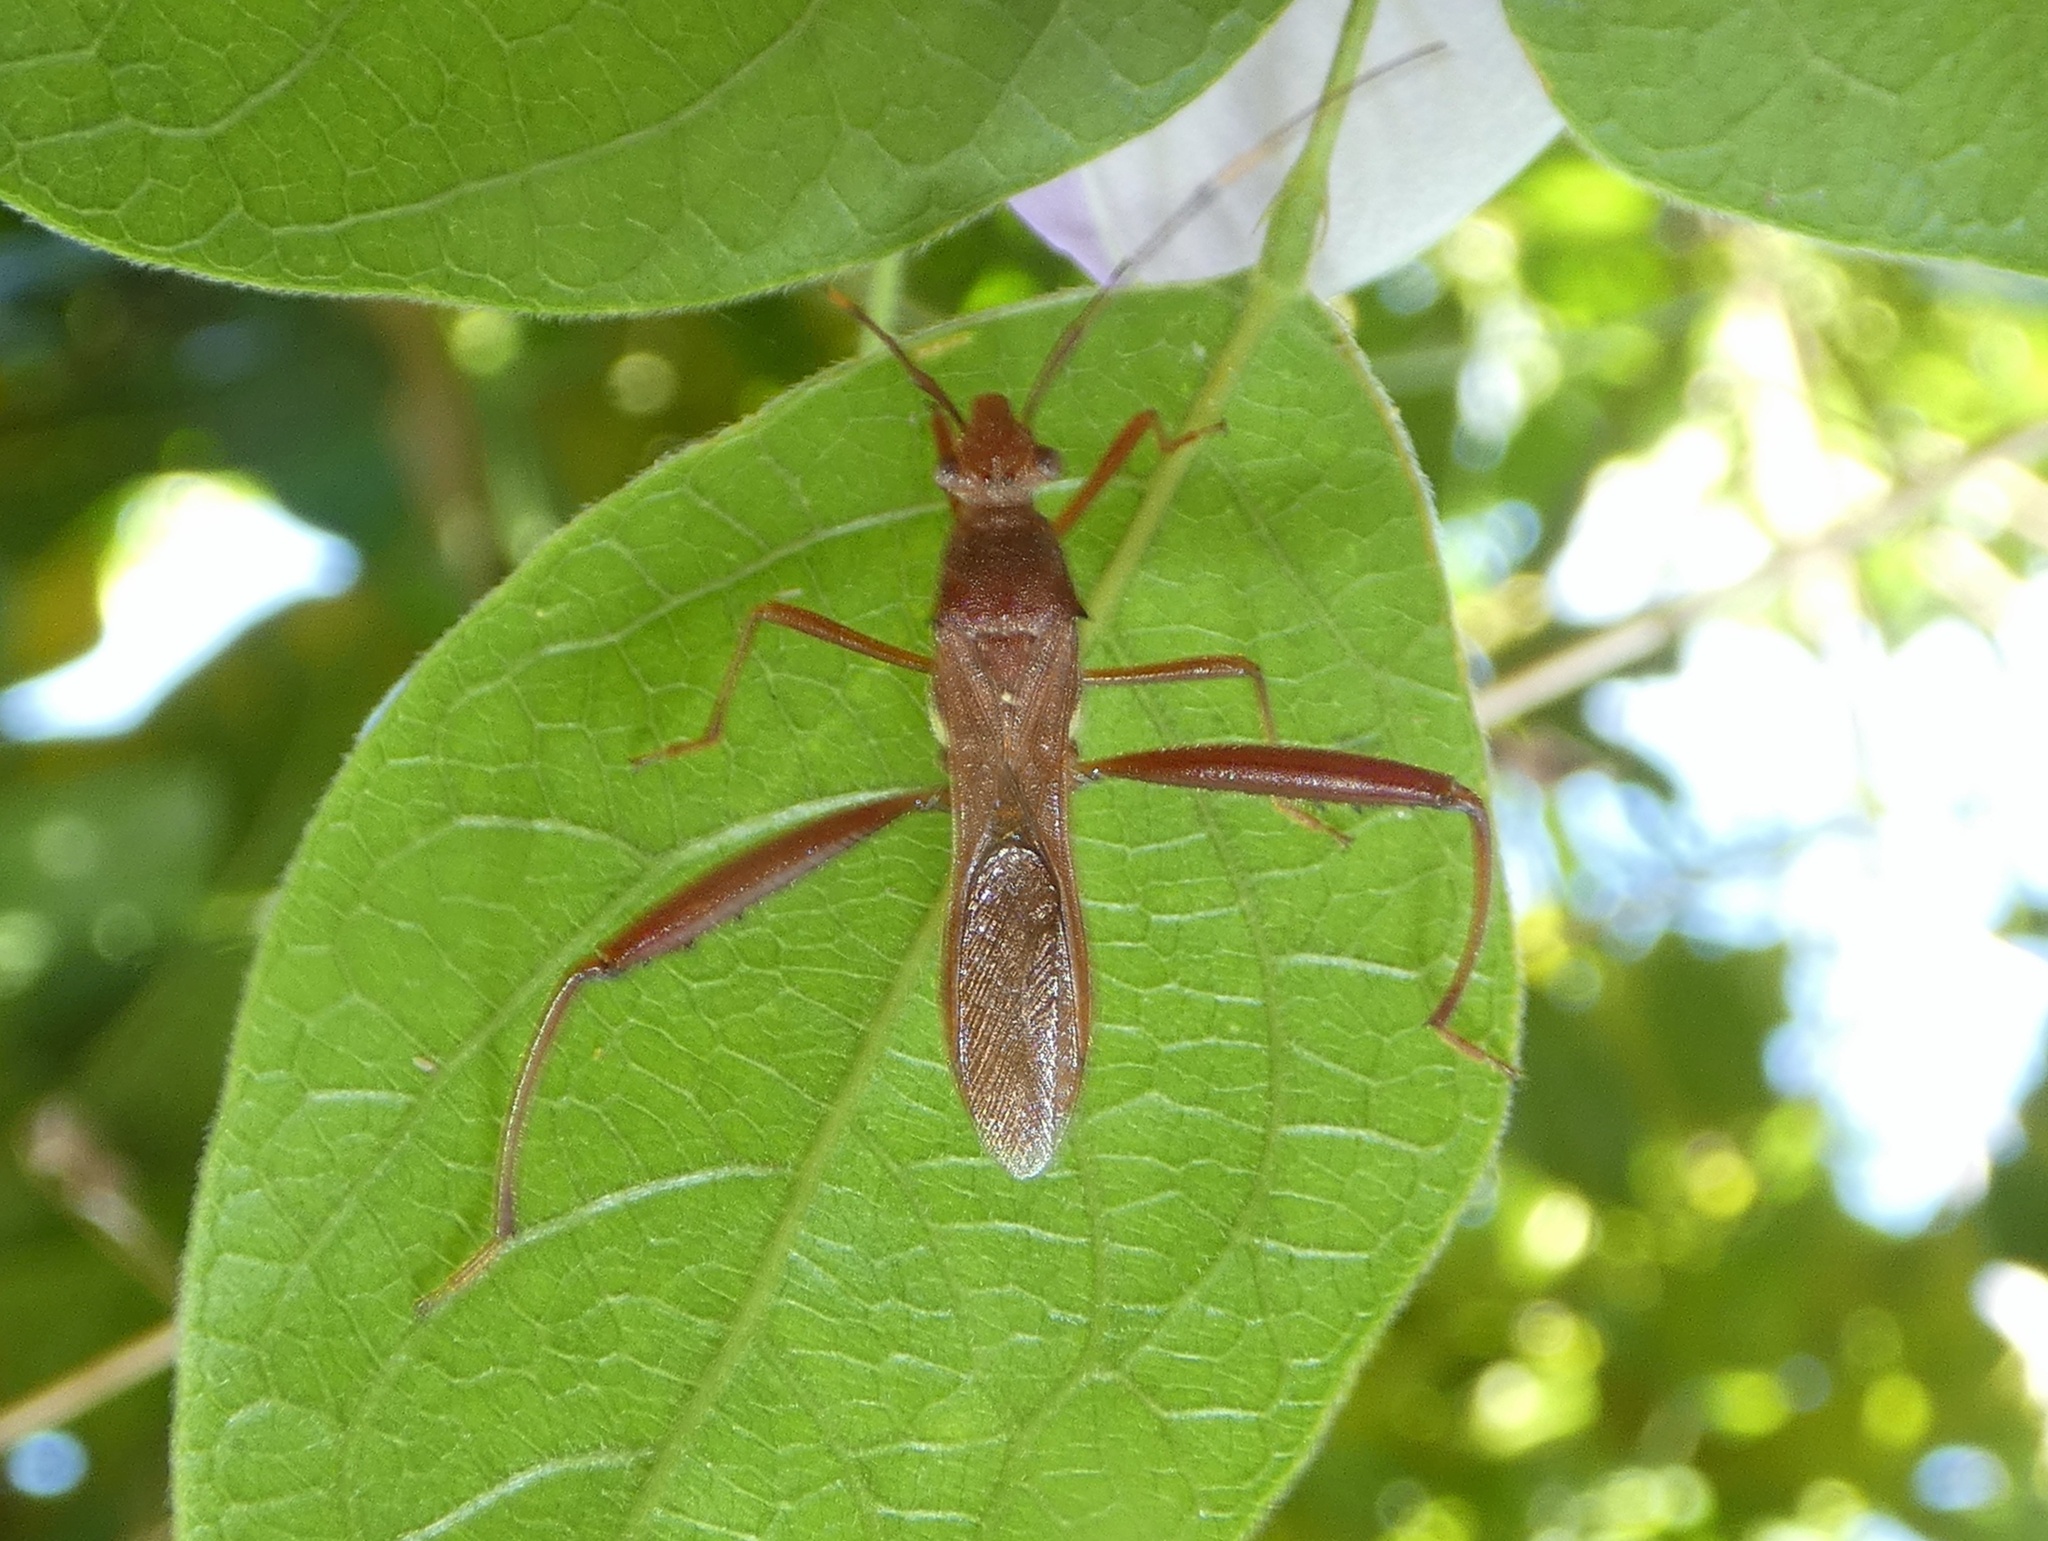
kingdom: Animalia
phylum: Arthropoda
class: Insecta
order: Hemiptera
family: Alydidae
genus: Riptortus
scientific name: Riptortus abdominalis
